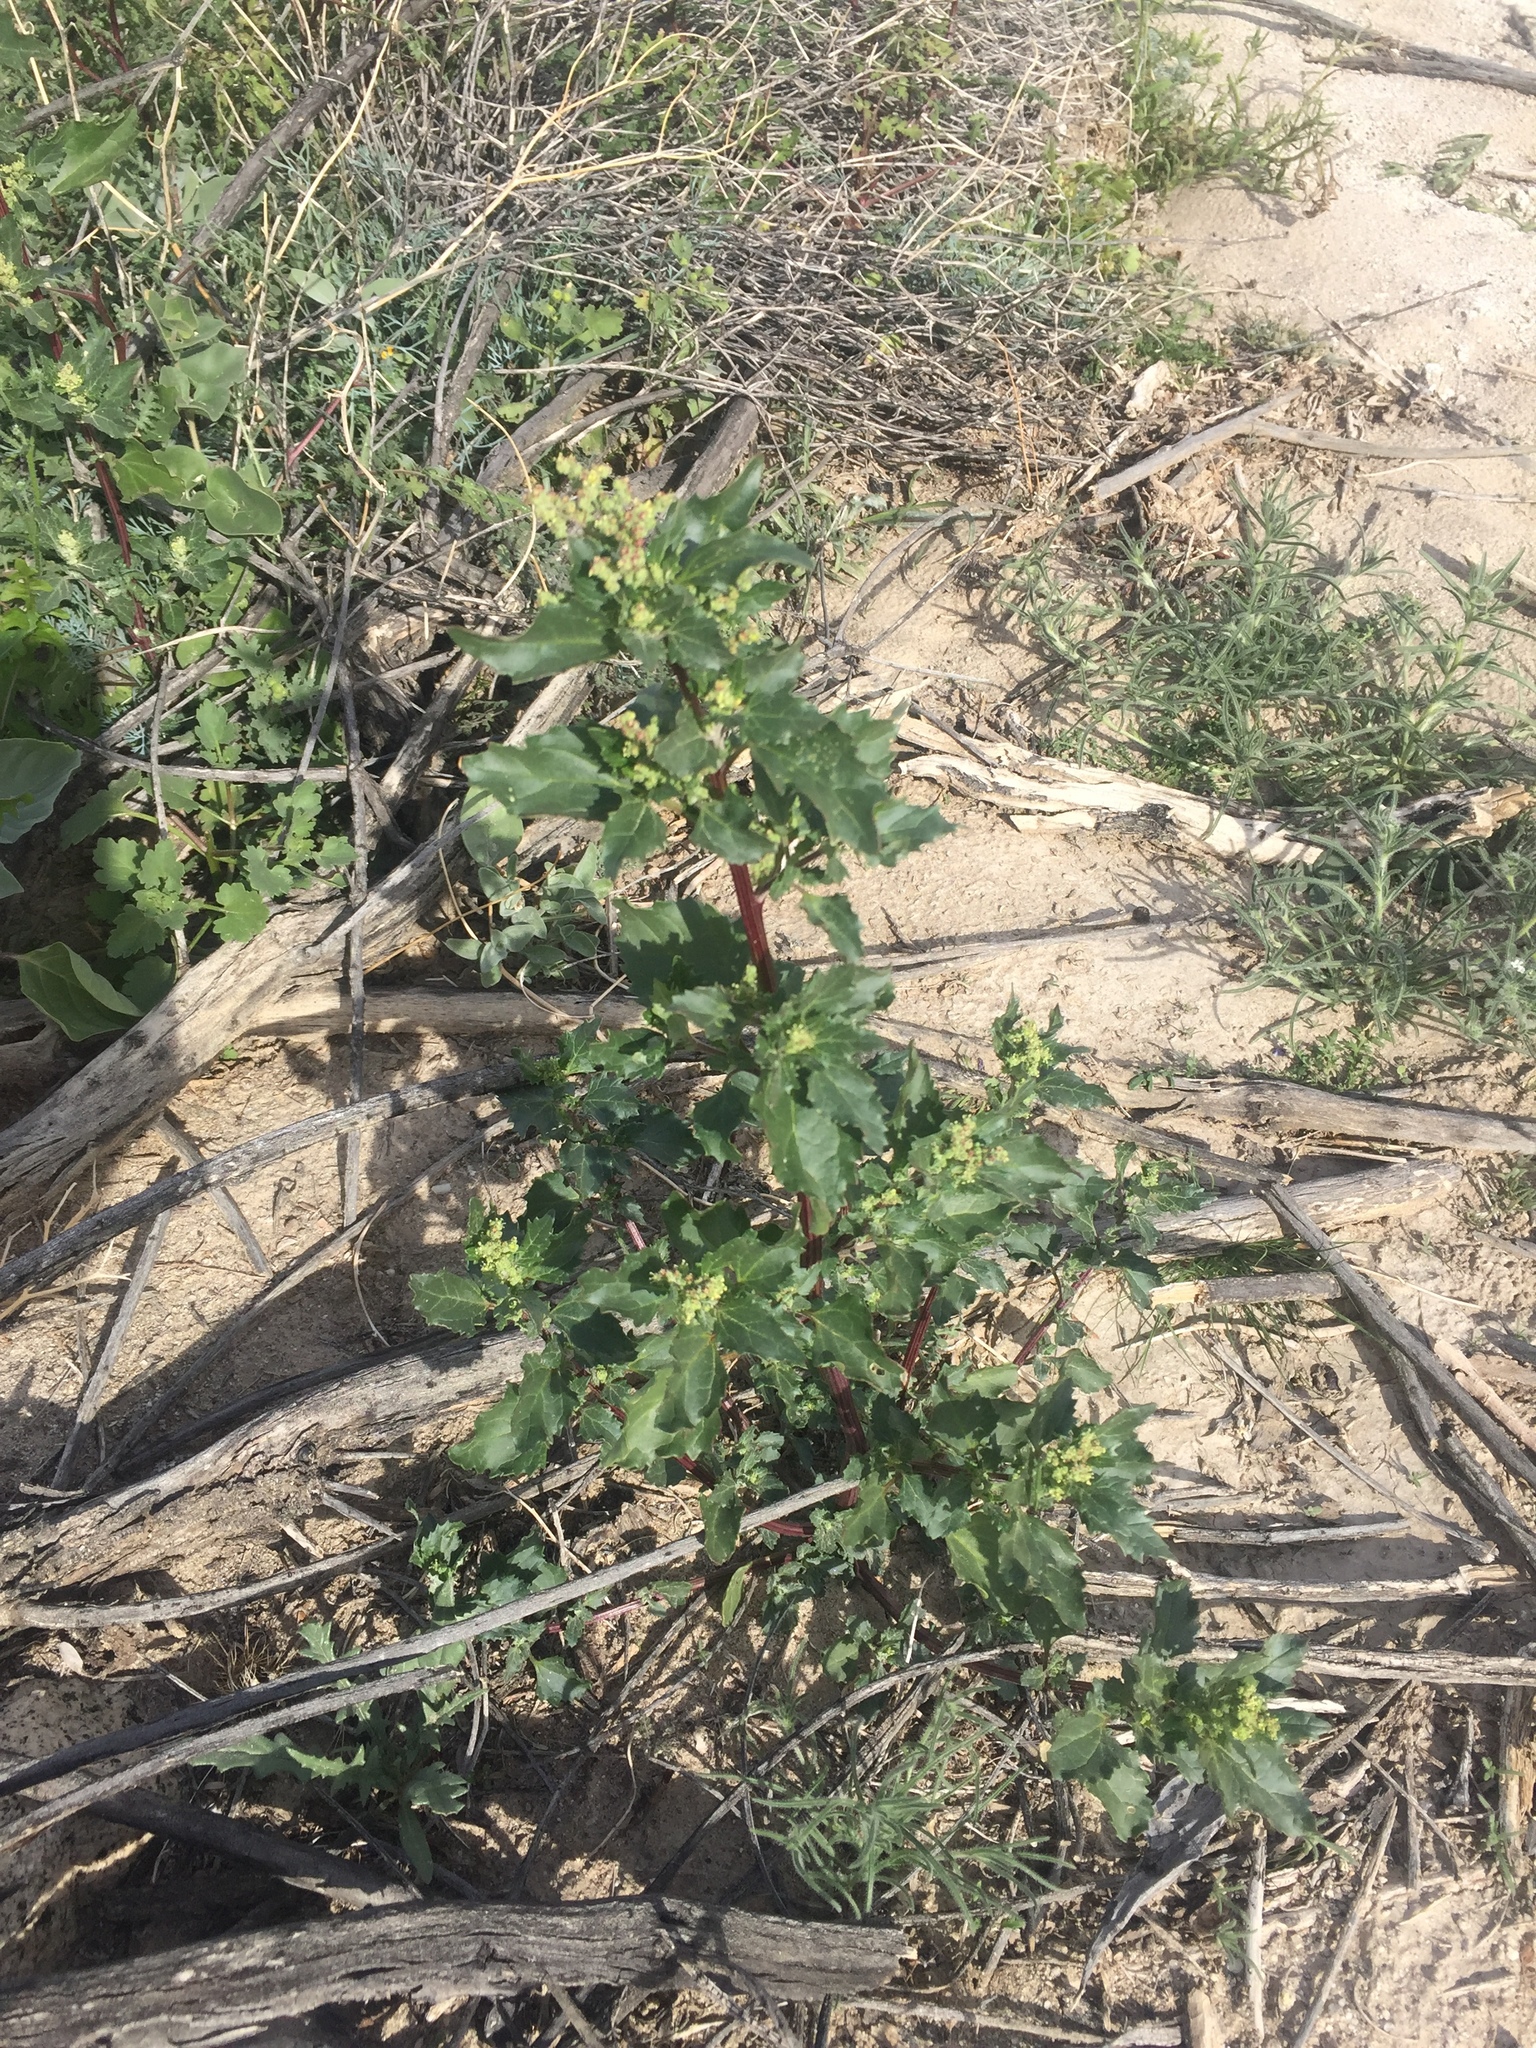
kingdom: Plantae
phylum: Tracheophyta
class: Magnoliopsida
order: Caryophyllales
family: Amaranthaceae
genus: Chenopodiastrum
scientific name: Chenopodiastrum murale
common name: Sowbane
